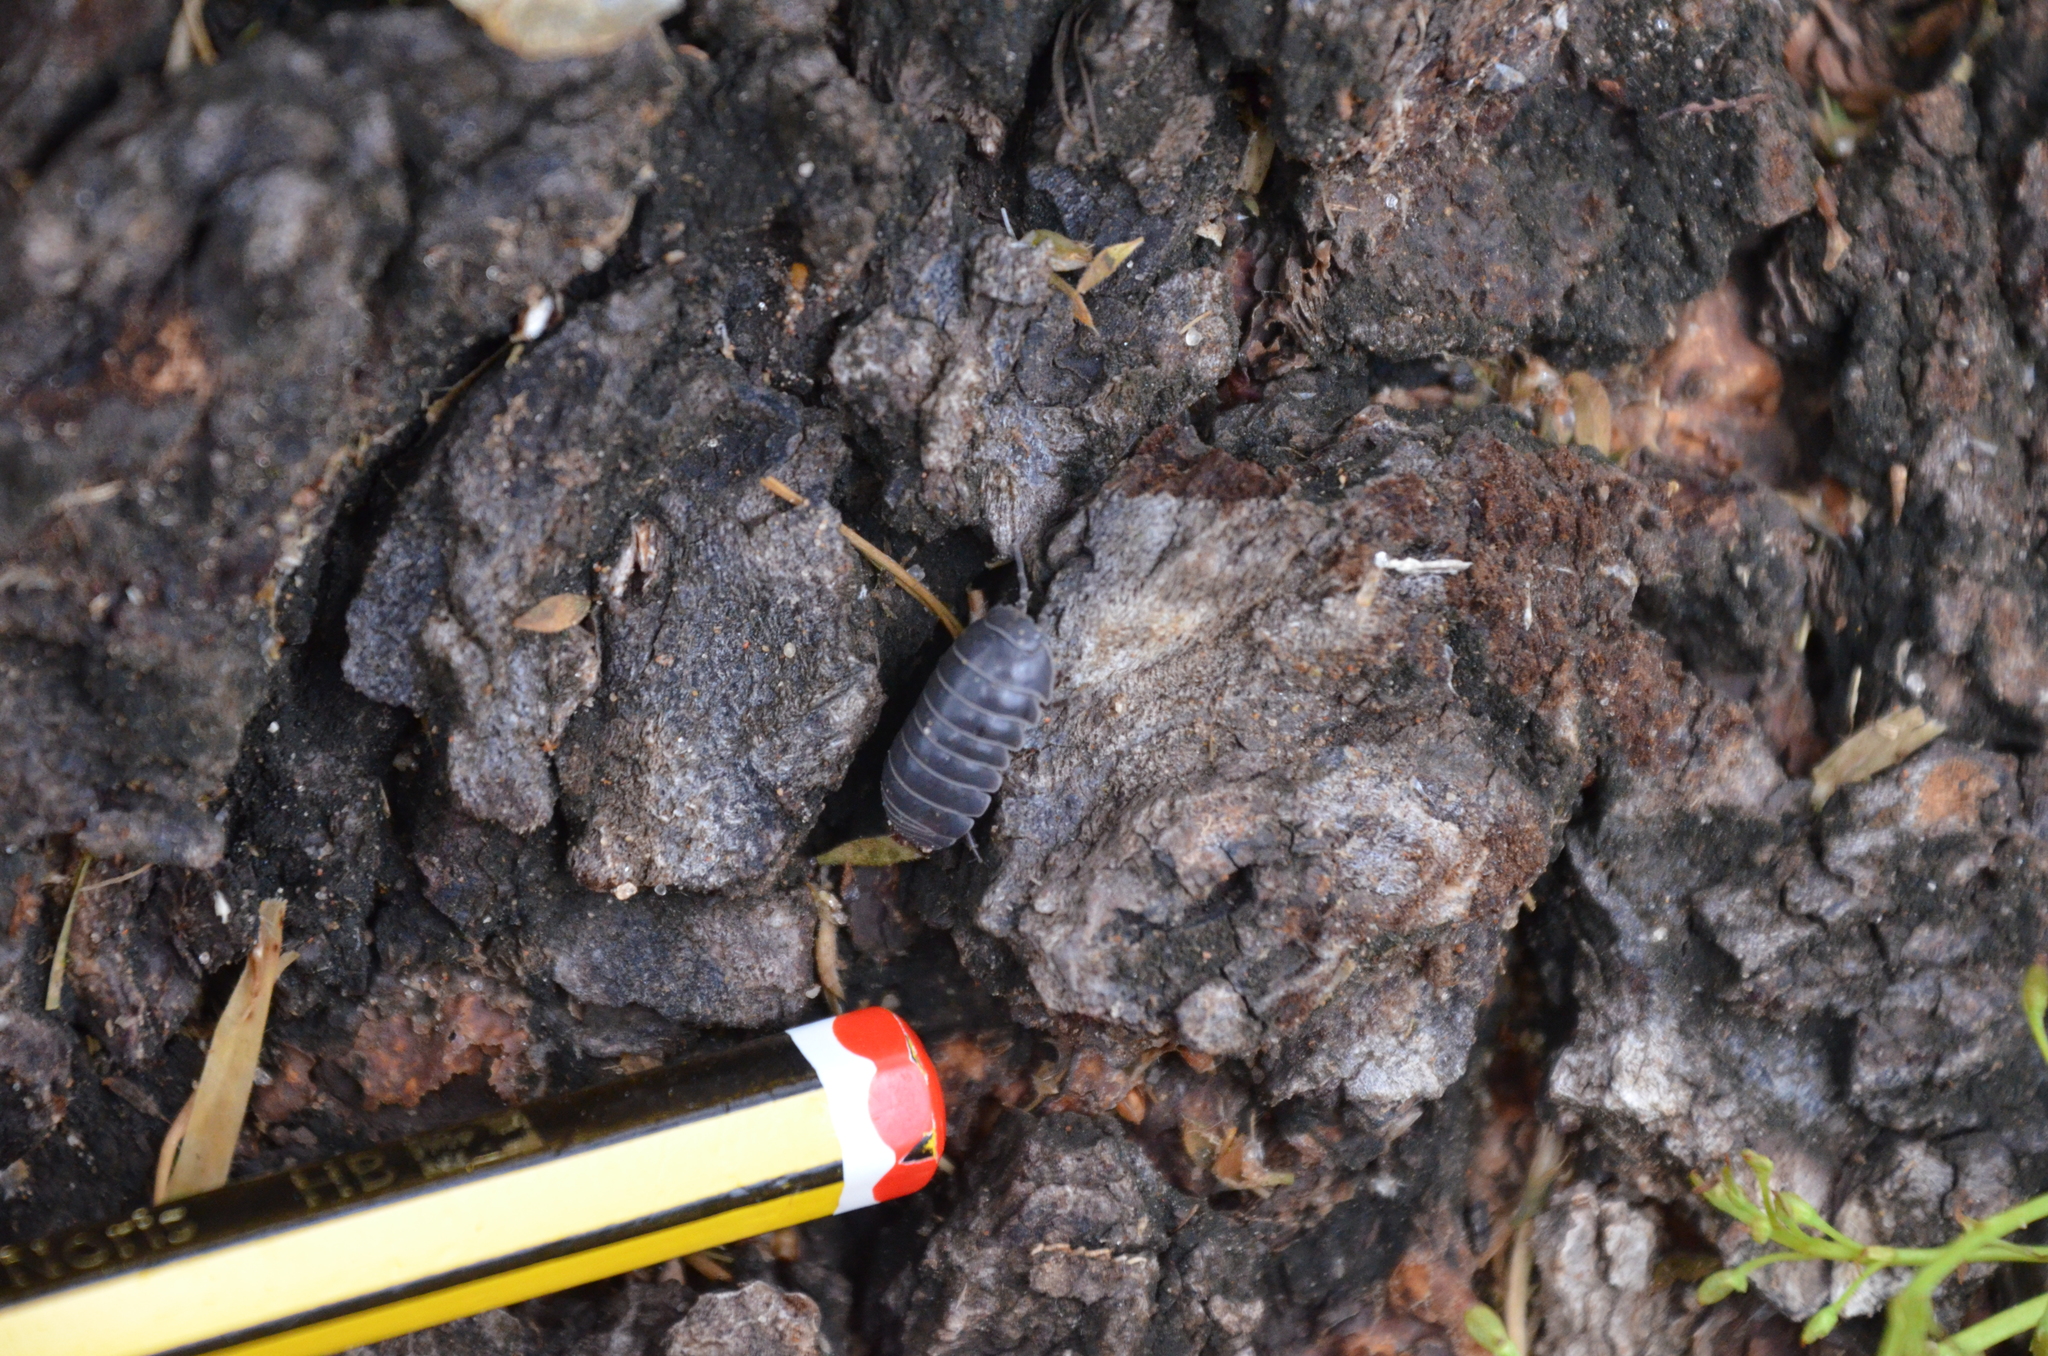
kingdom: Animalia
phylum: Arthropoda
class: Malacostraca
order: Isopoda
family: Armadillidiidae
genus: Armadillidium
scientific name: Armadillidium vulgare
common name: Common pill woodlouse
